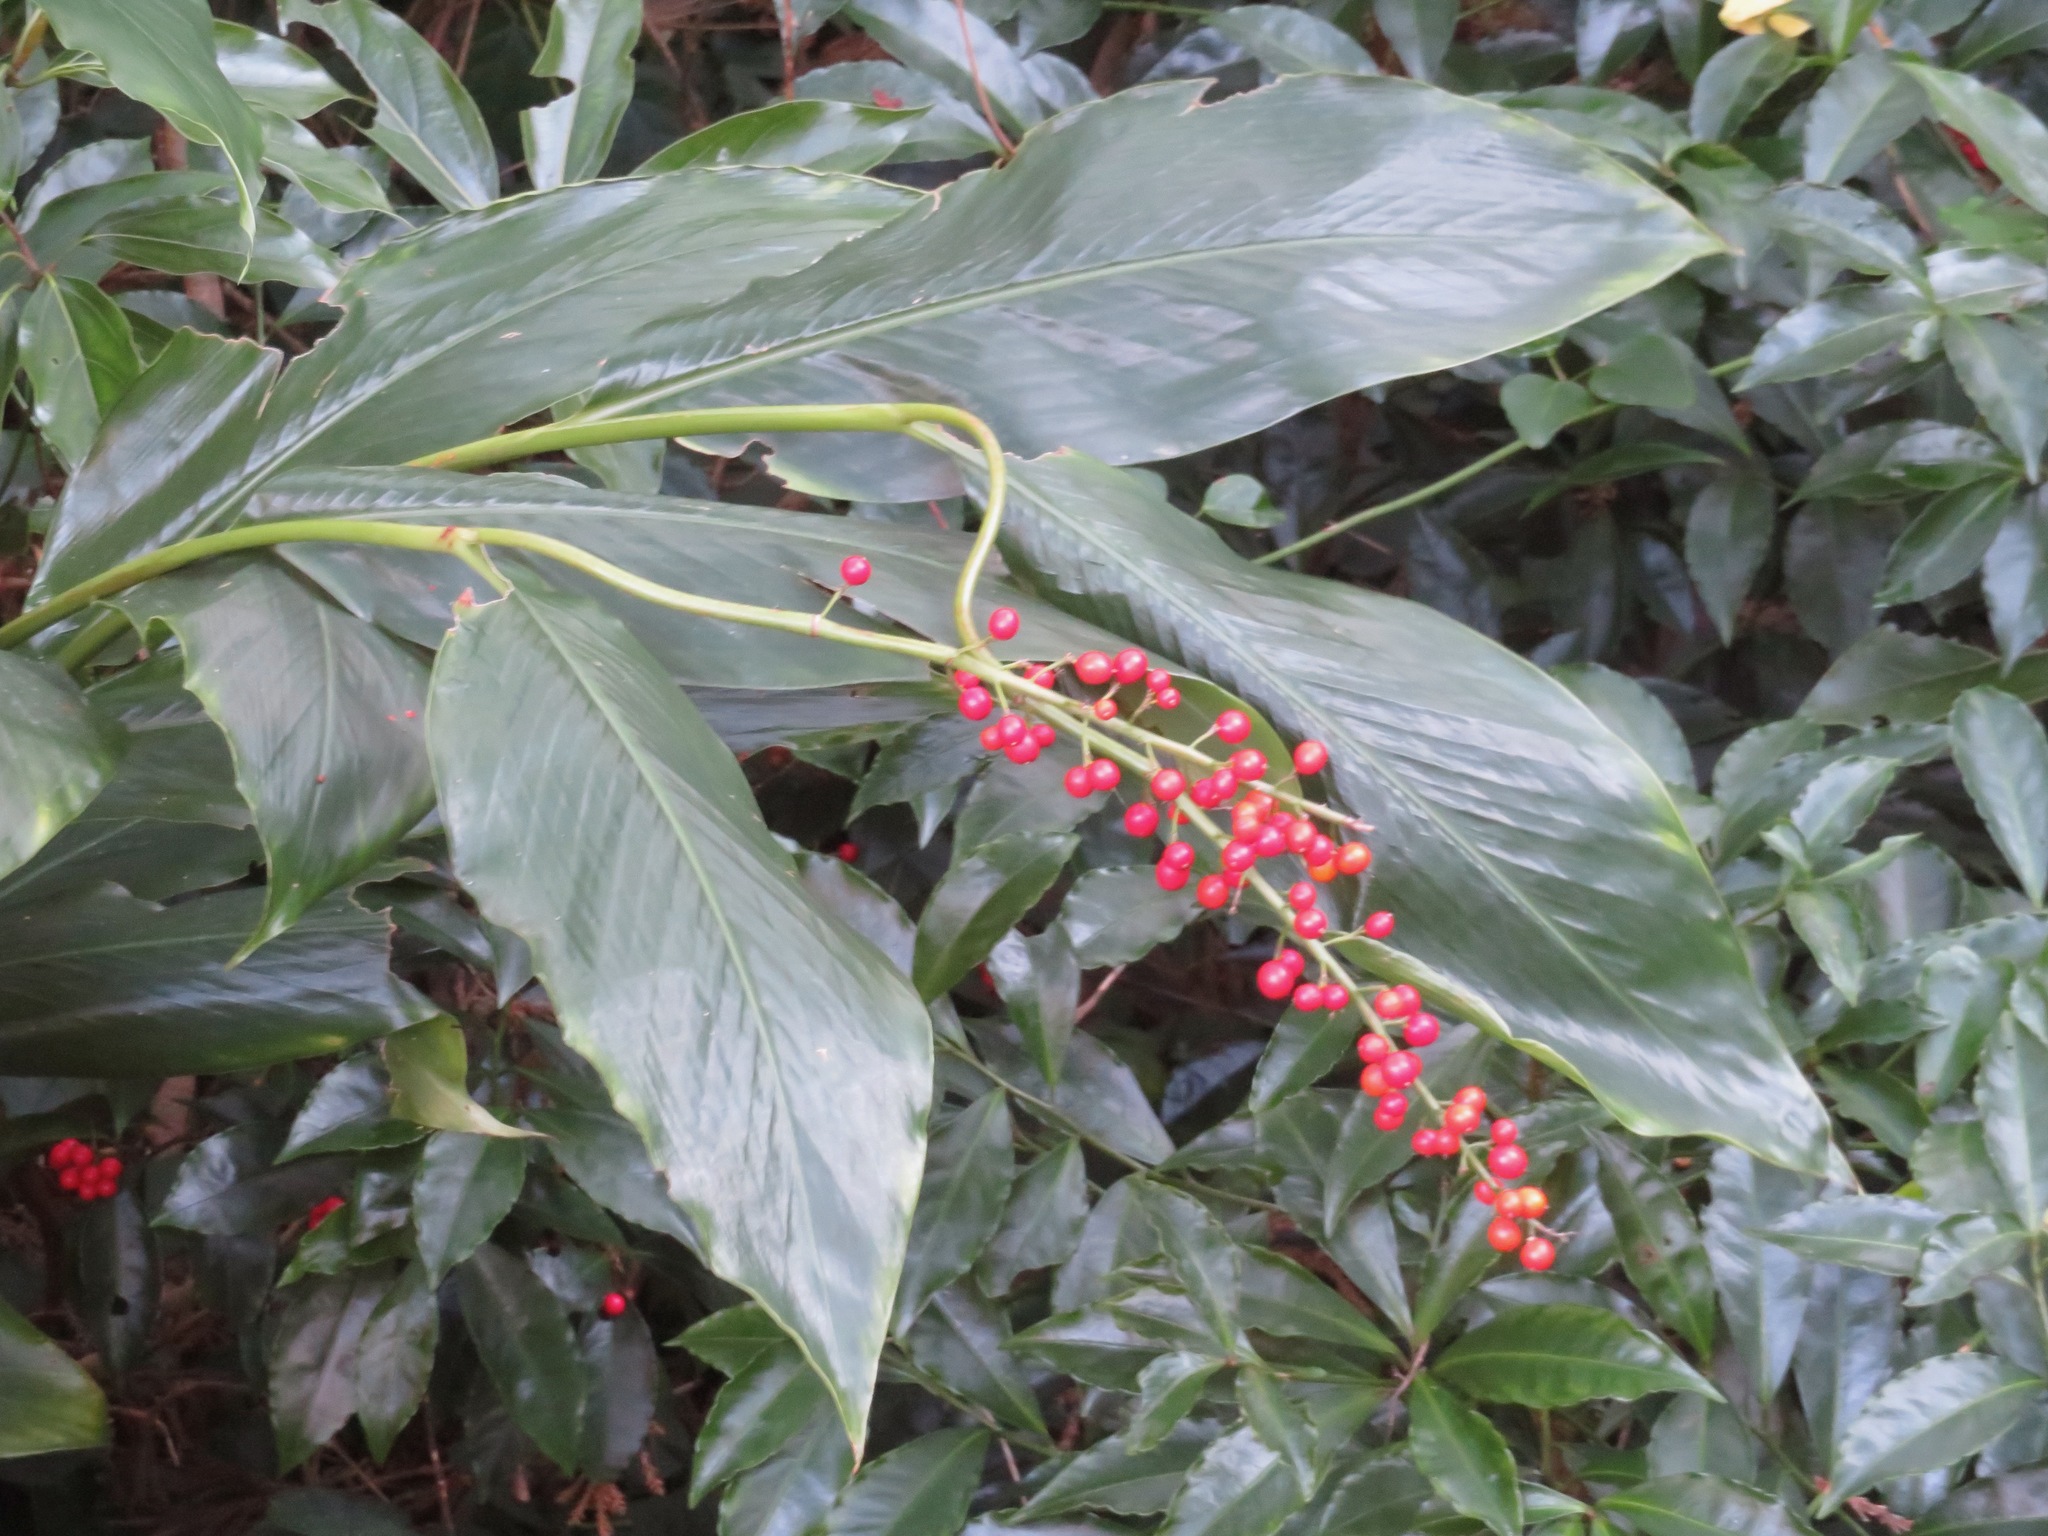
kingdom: Plantae
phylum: Tracheophyta
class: Liliopsida
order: Zingiberales
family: Zingiberaceae
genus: Alpinia
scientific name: Alpinia intermedia
